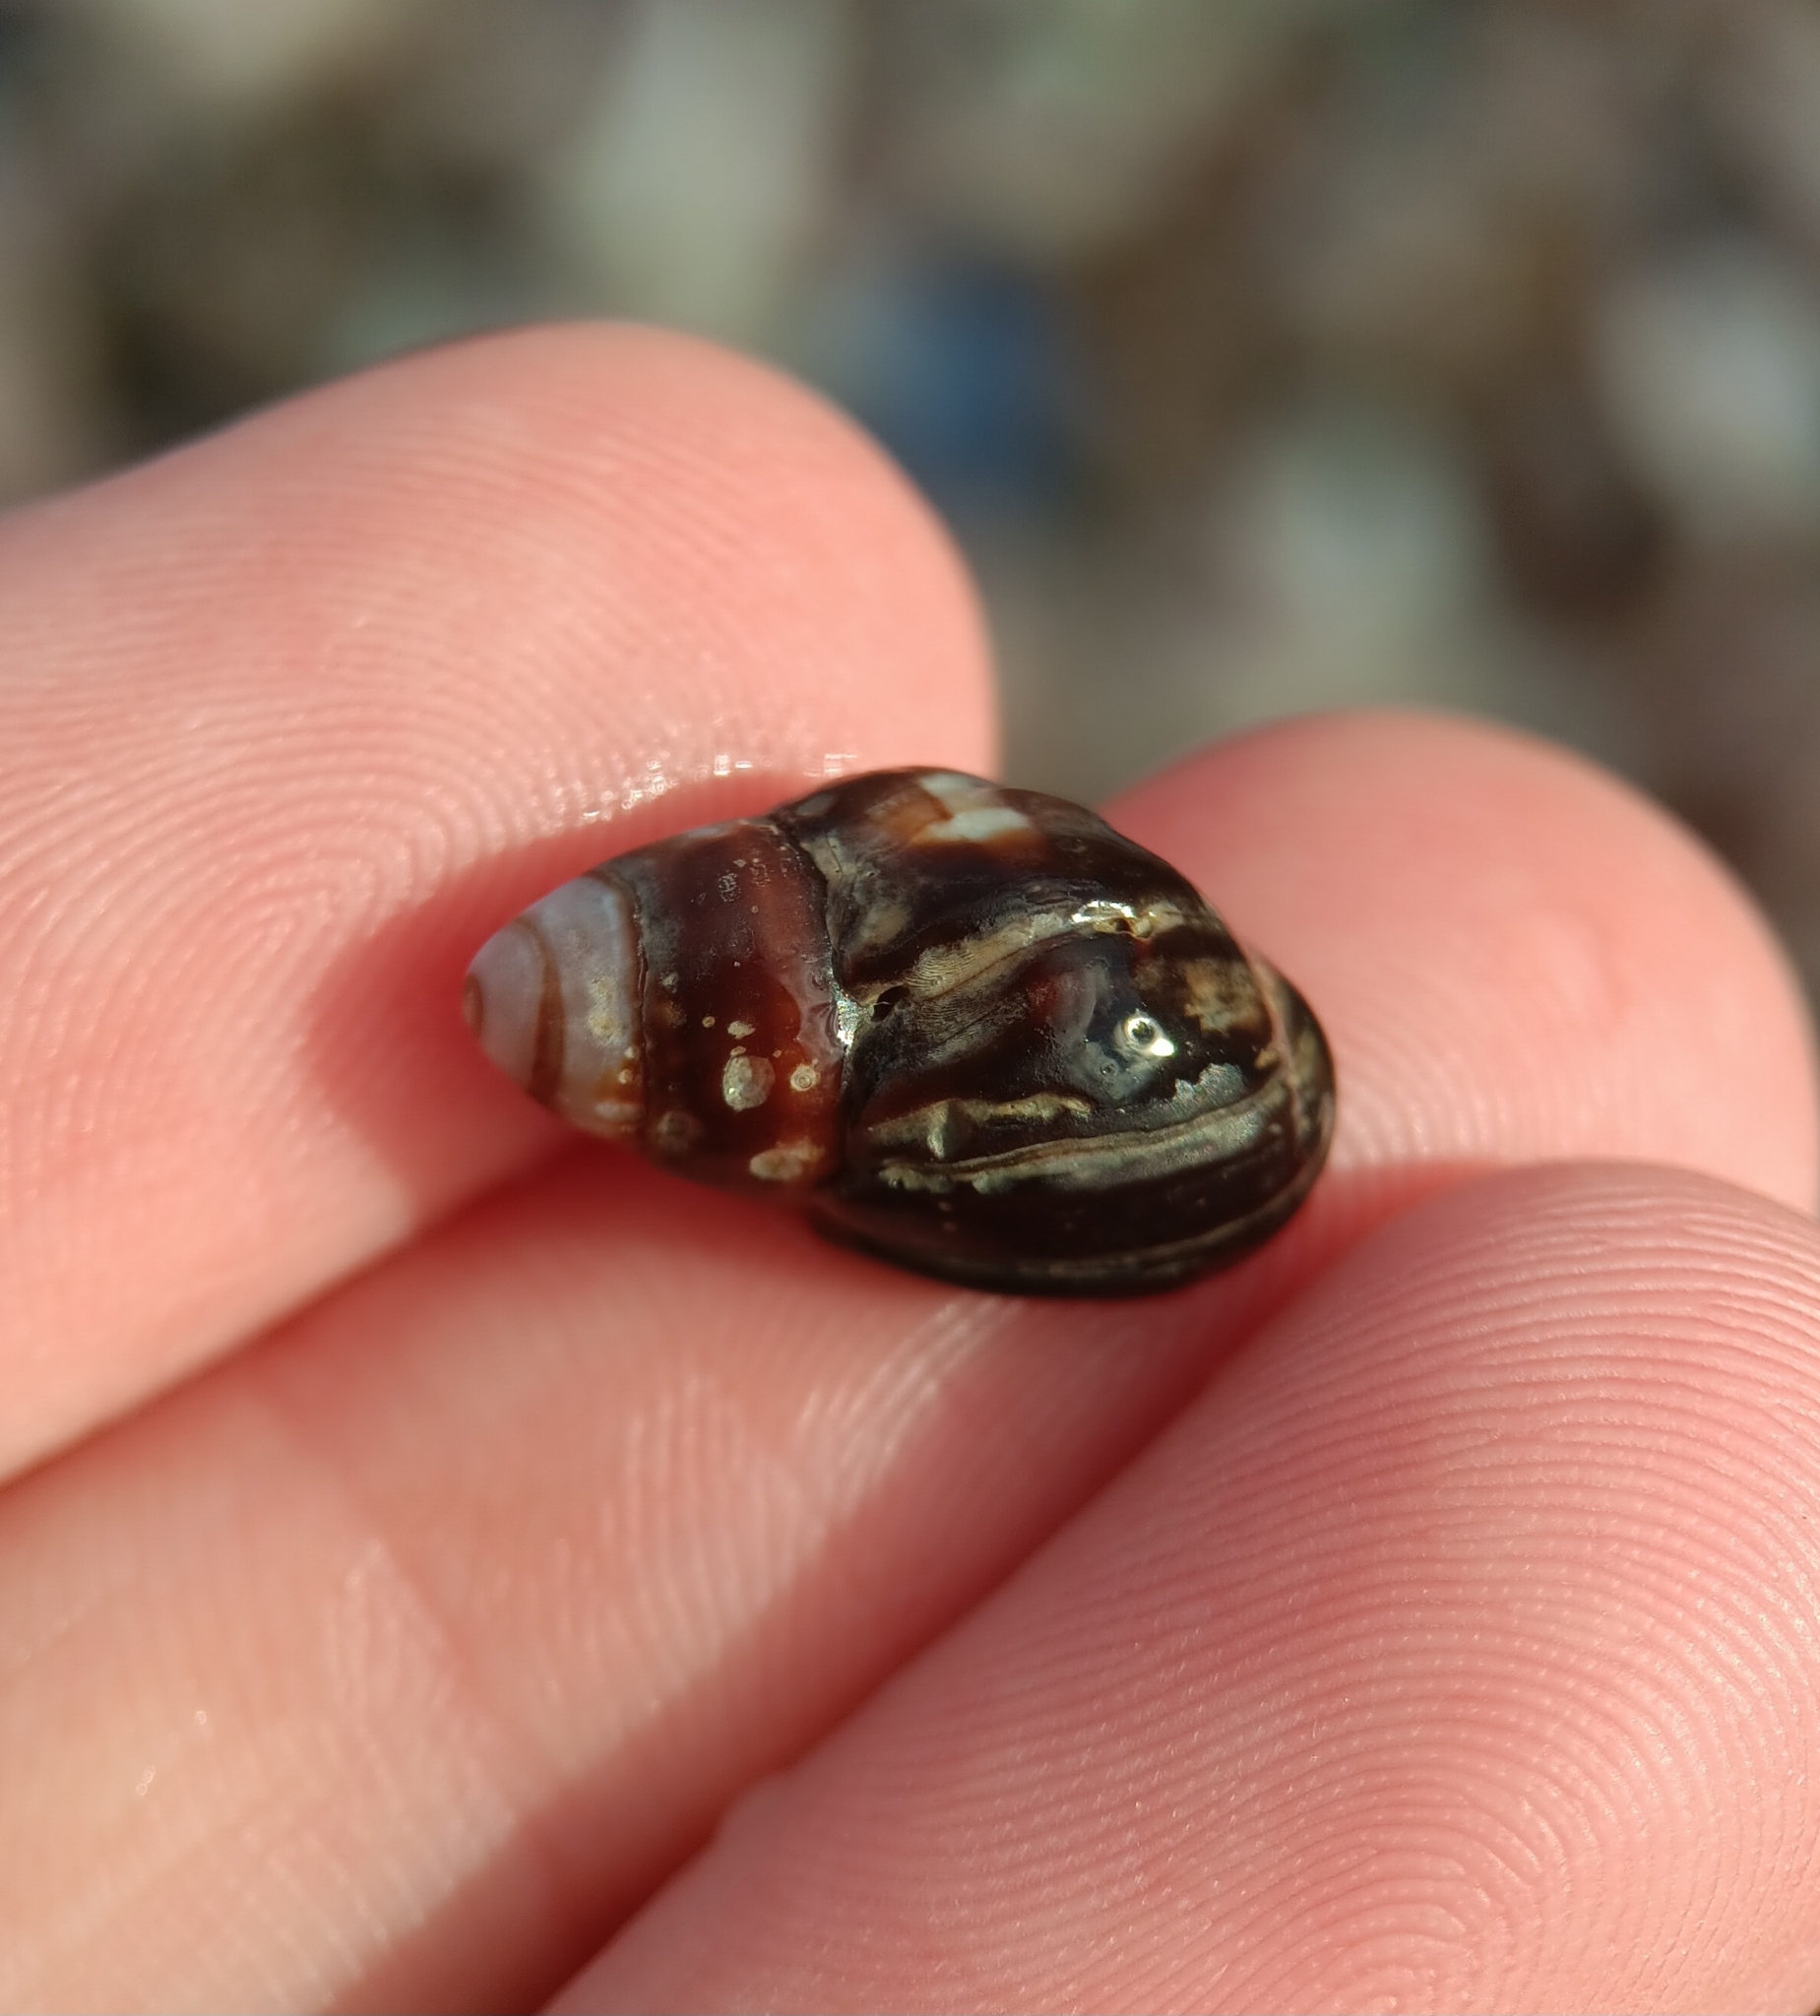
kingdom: Animalia
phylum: Mollusca
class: Gastropoda
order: Neogastropoda
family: Nassariidae
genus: Ilyanassa
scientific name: Ilyanassa obsoleta
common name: Eastern mudsnail
